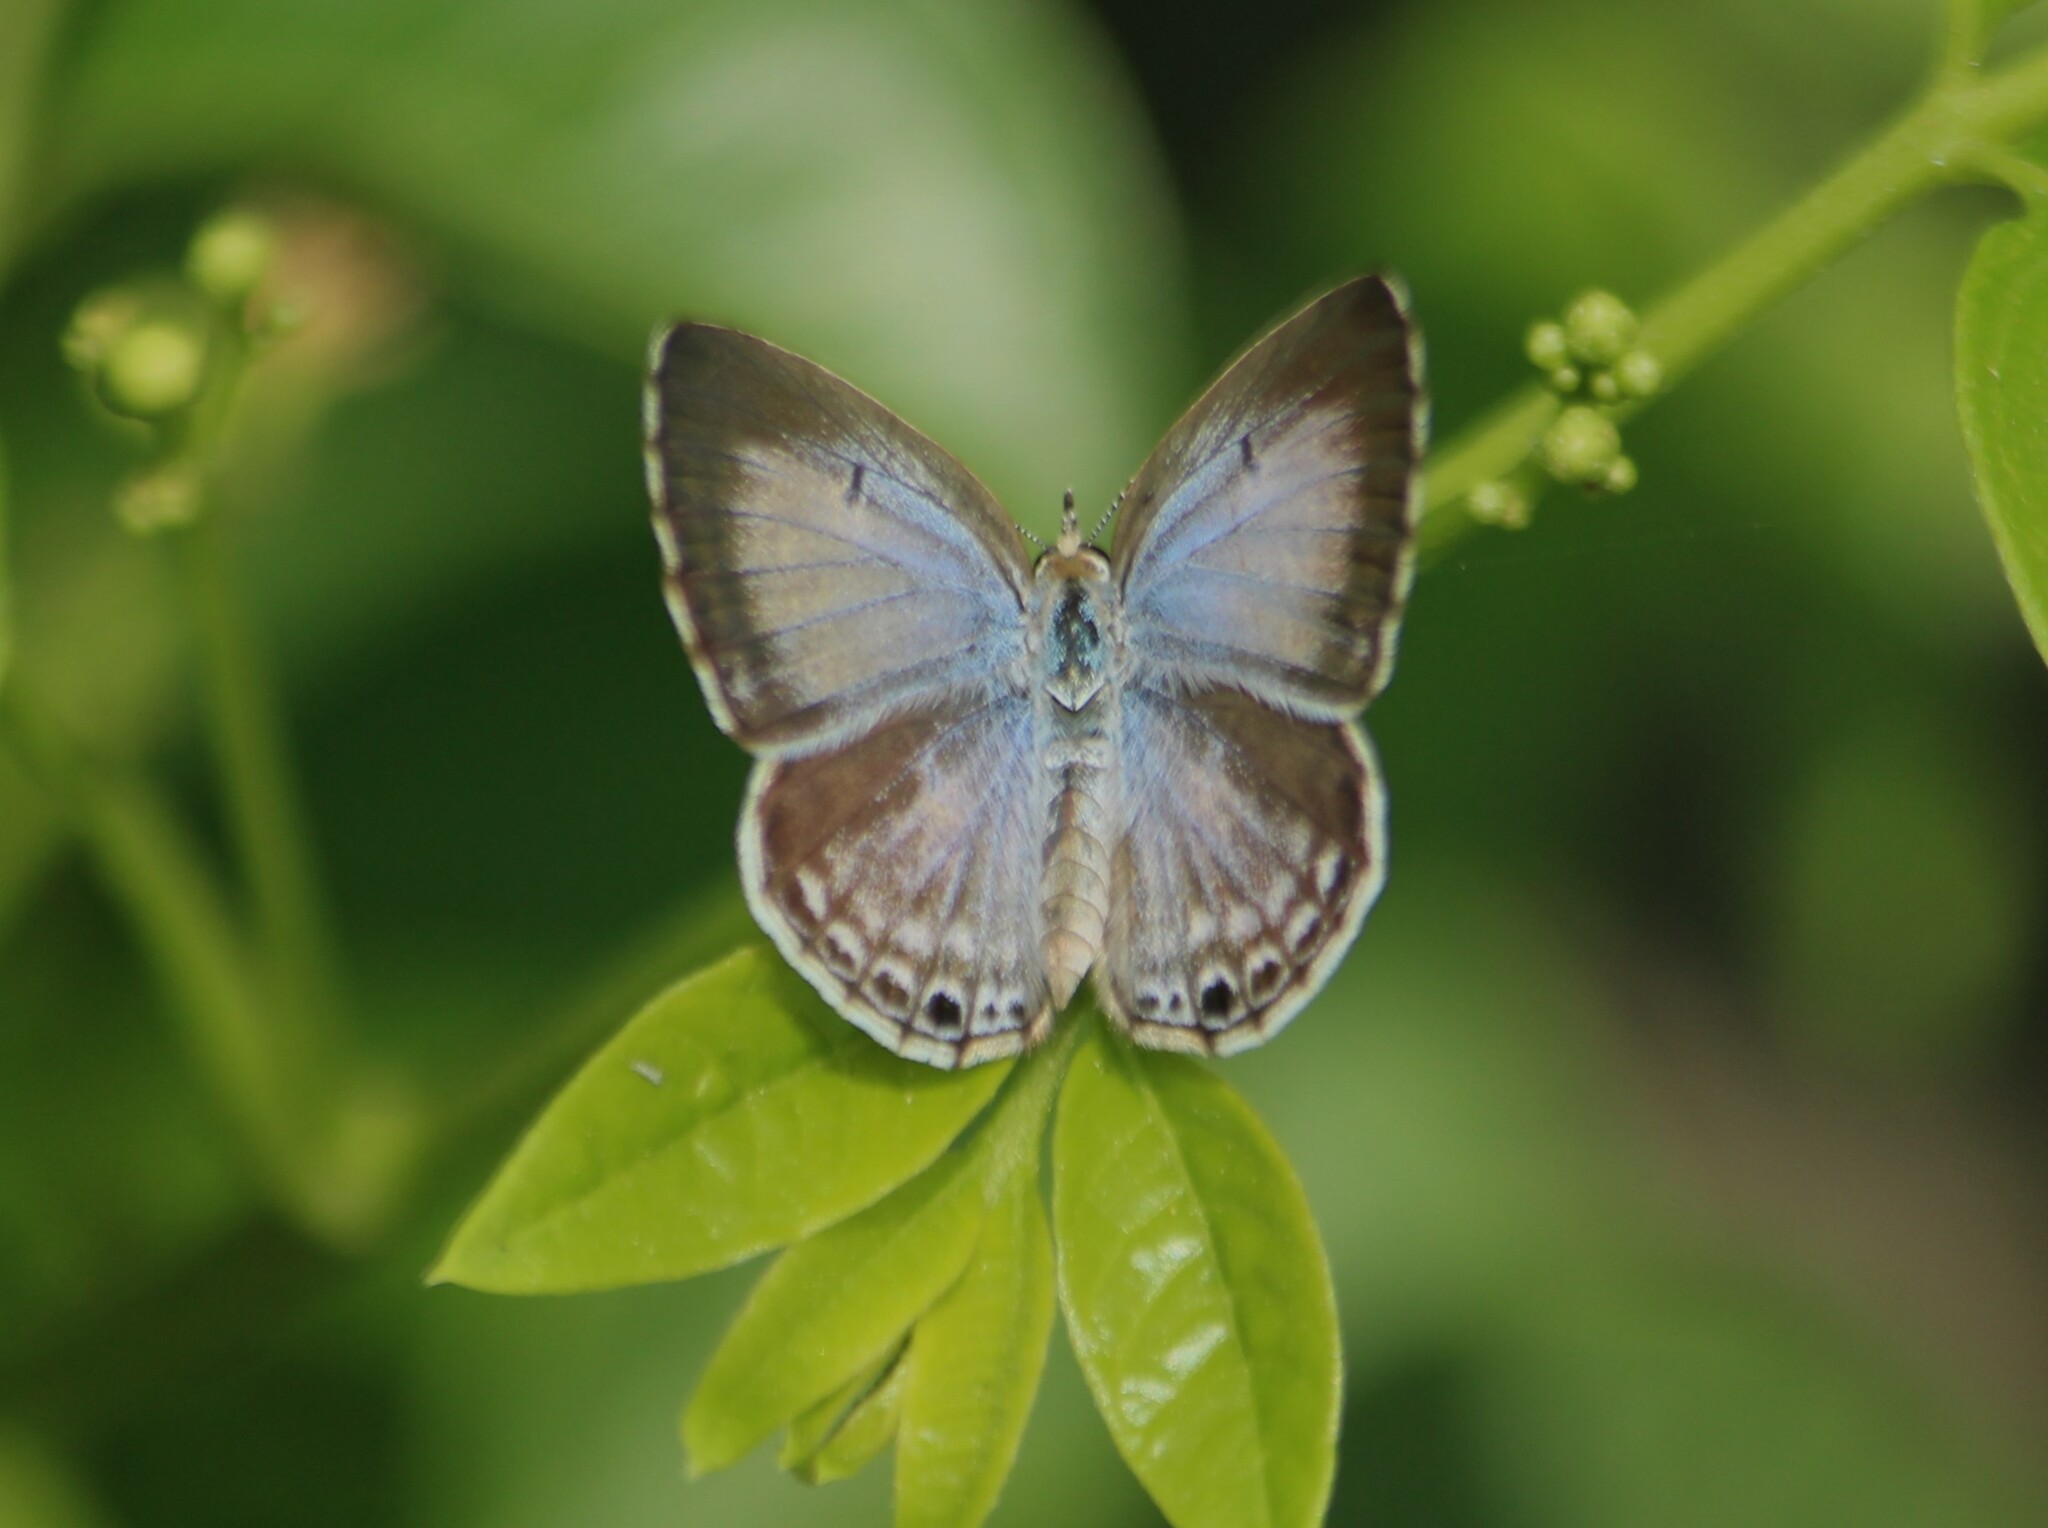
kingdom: Animalia
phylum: Arthropoda
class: Insecta
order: Lepidoptera
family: Lycaenidae
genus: Chilades
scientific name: Chilades laius
